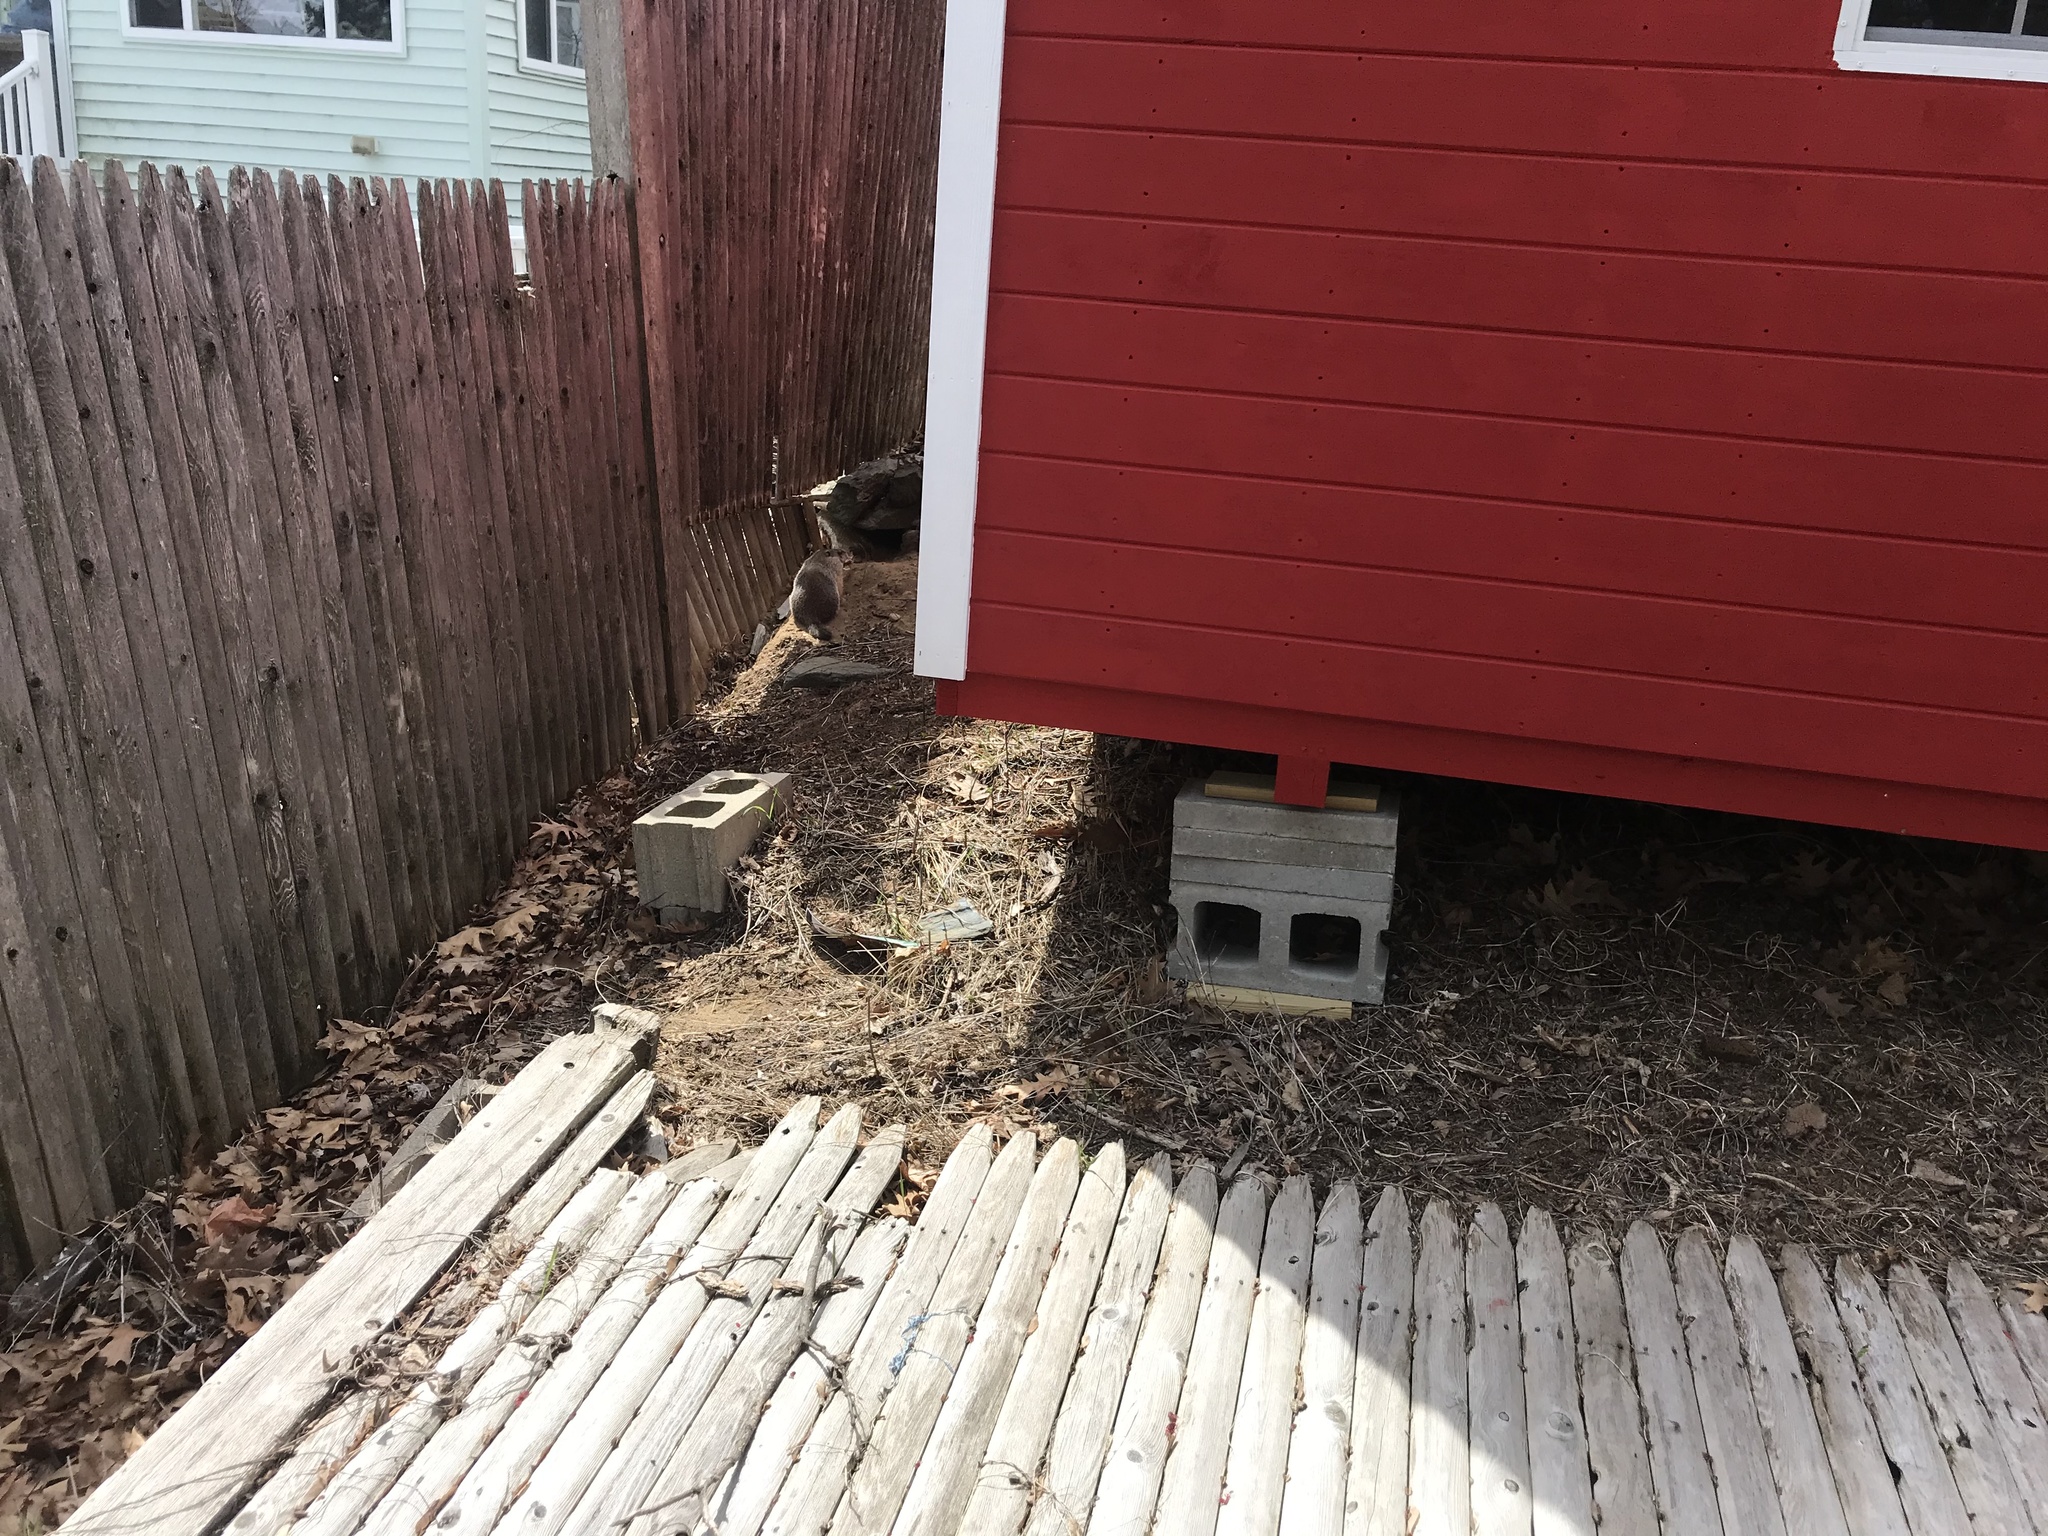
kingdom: Animalia
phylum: Chordata
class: Mammalia
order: Rodentia
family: Sciuridae
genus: Marmota
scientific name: Marmota monax
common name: Groundhog
